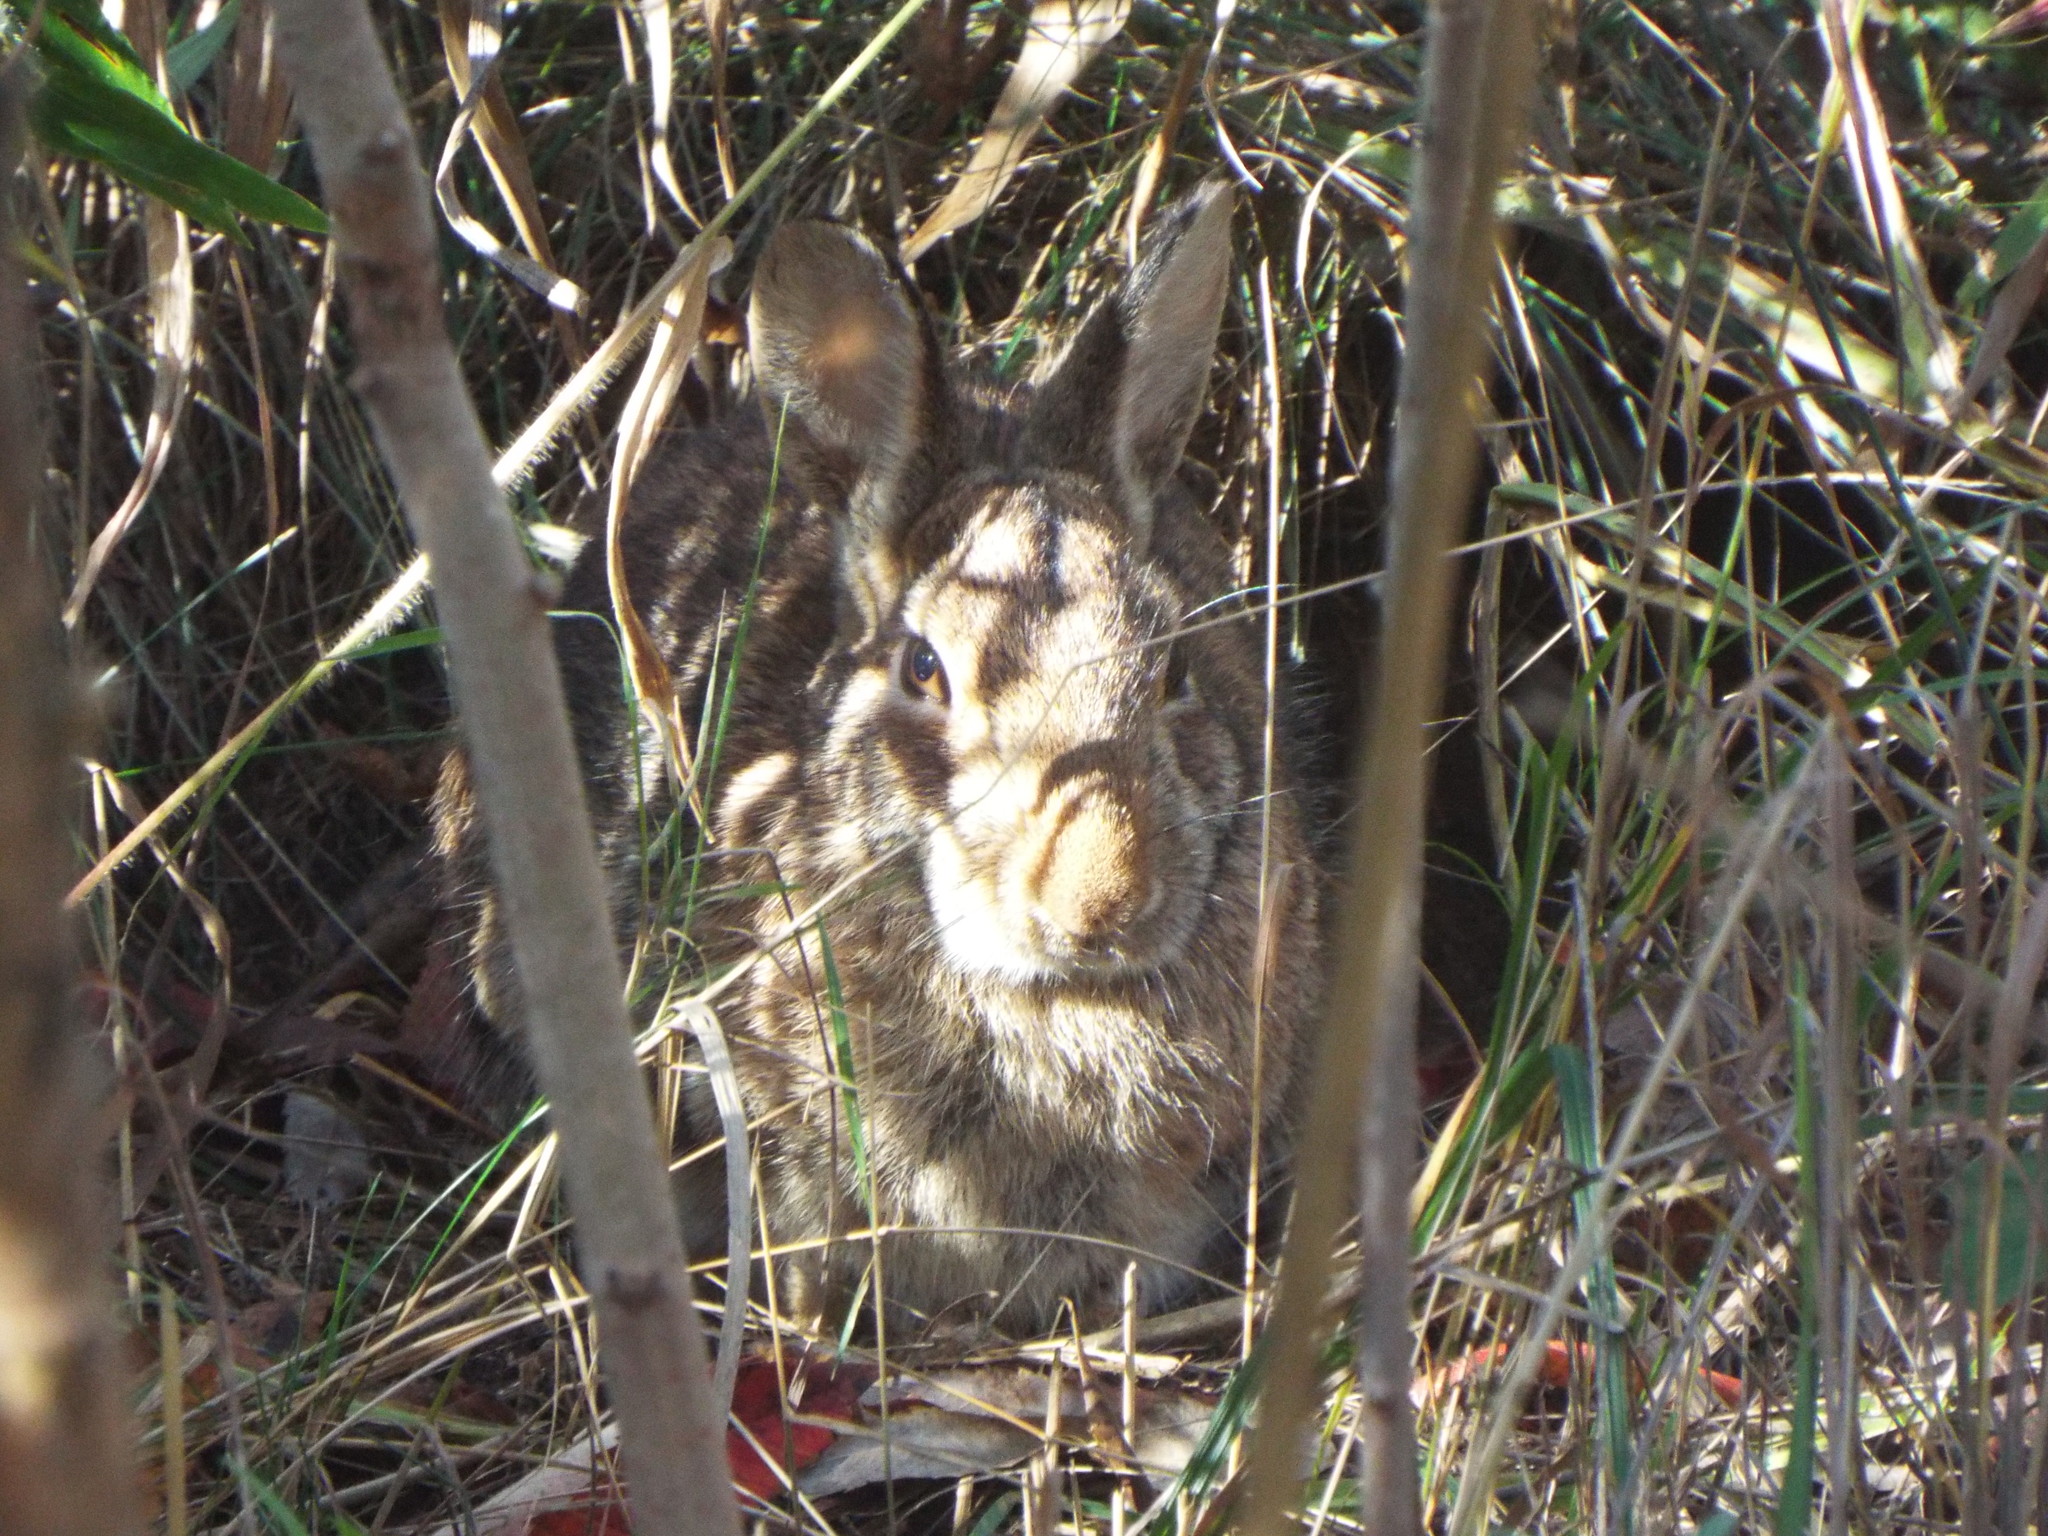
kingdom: Animalia
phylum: Chordata
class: Mammalia
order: Lagomorpha
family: Leporidae
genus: Sylvilagus
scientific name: Sylvilagus floridanus
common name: Eastern cottontail
